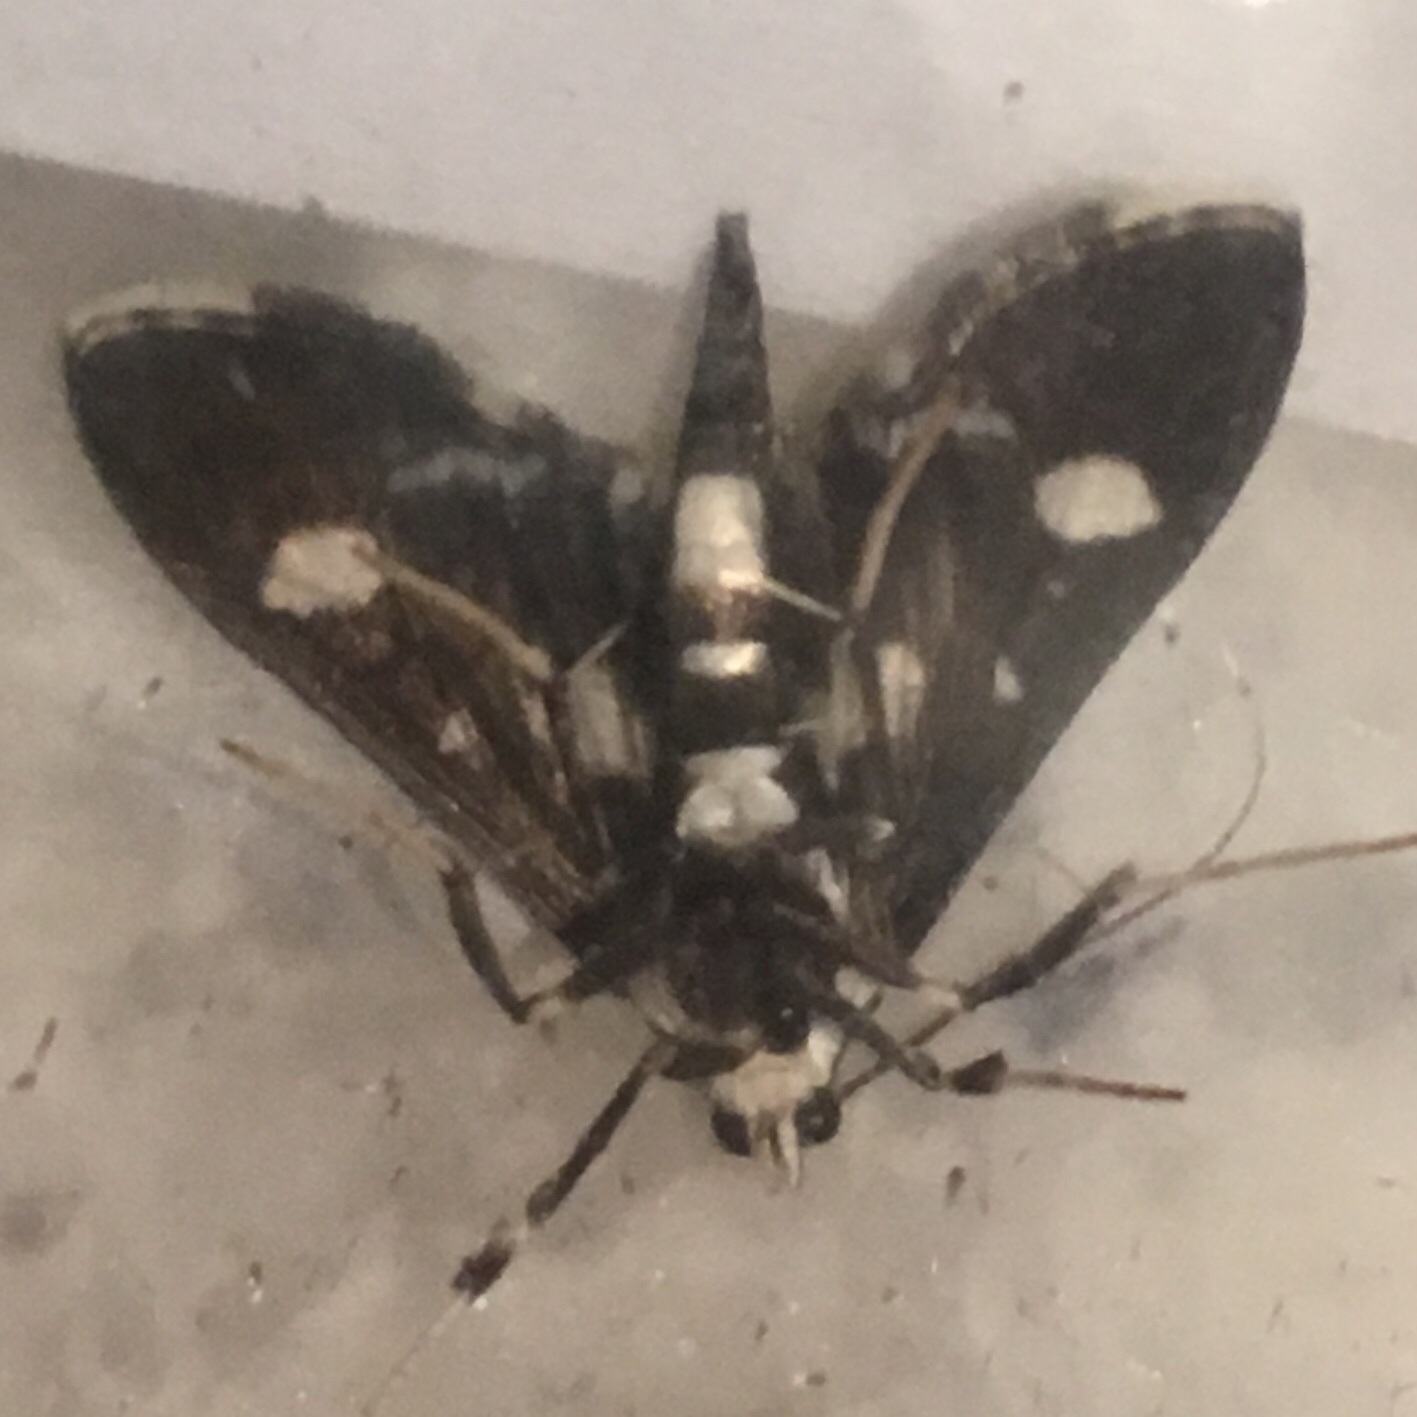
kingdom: Animalia
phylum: Arthropoda
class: Insecta
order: Lepidoptera
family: Crambidae
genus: Desmia
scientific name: Desmia funeralis
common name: Grape leaf folder moth
